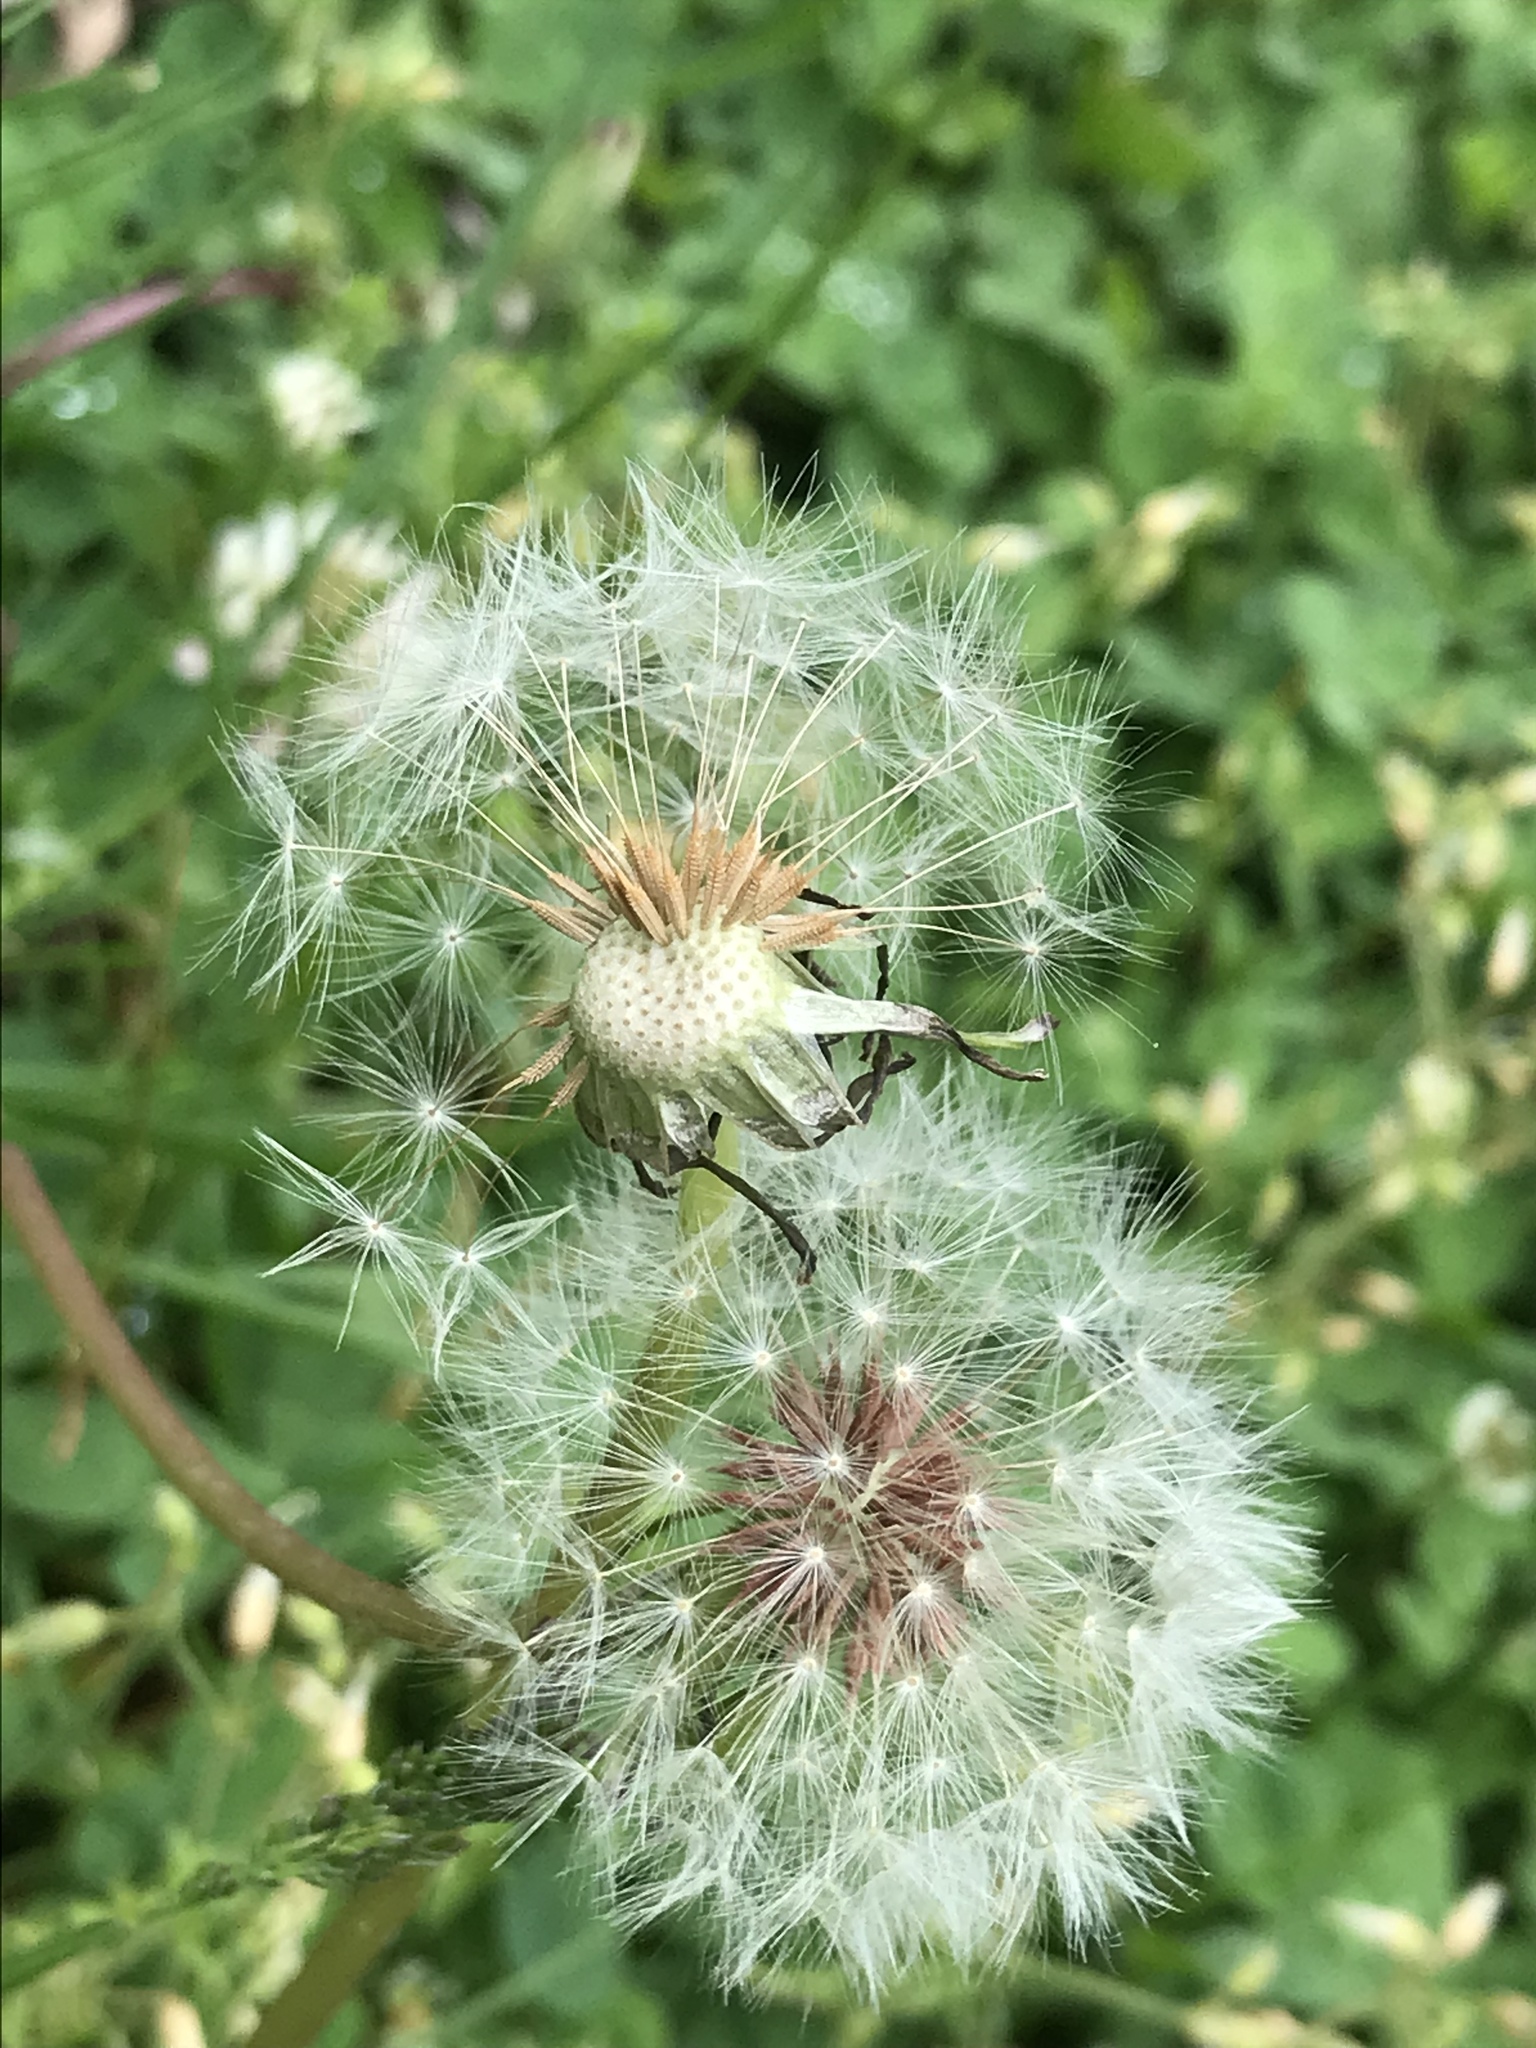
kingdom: Plantae
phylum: Tracheophyta
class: Magnoliopsida
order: Asterales
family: Asteraceae
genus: Taraxacum
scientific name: Taraxacum erythrospermum
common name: Rock dandelion
